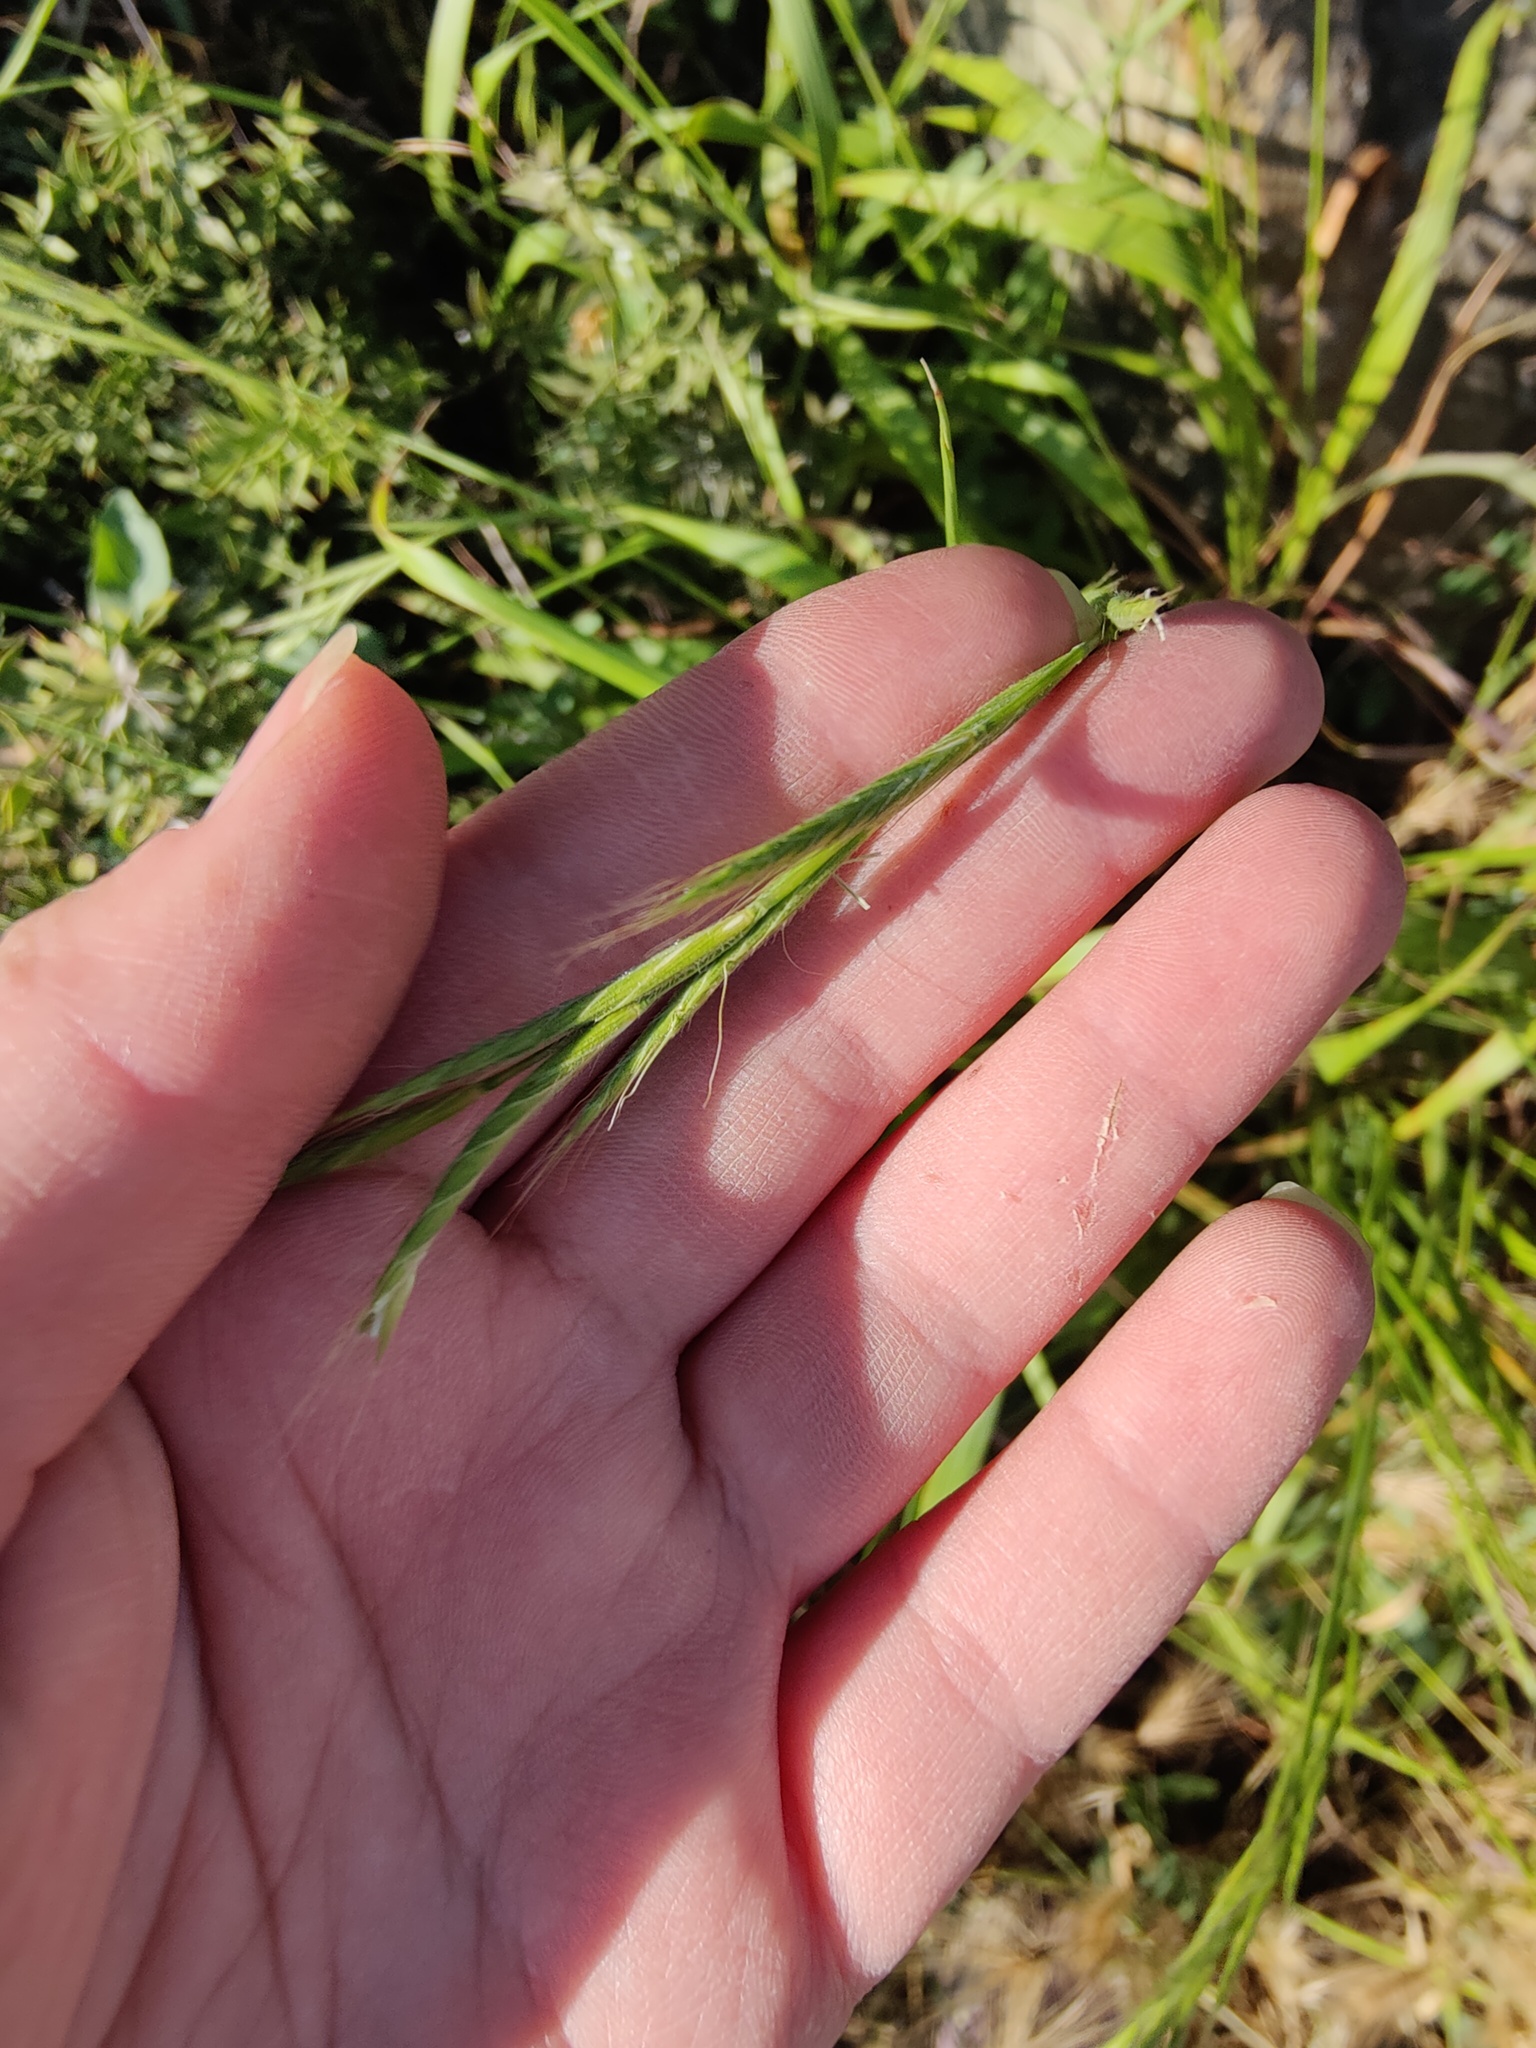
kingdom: Plantae
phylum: Tracheophyta
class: Liliopsida
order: Poales
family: Poaceae
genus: Brachypodium
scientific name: Brachypodium sylvaticum
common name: False-brome
